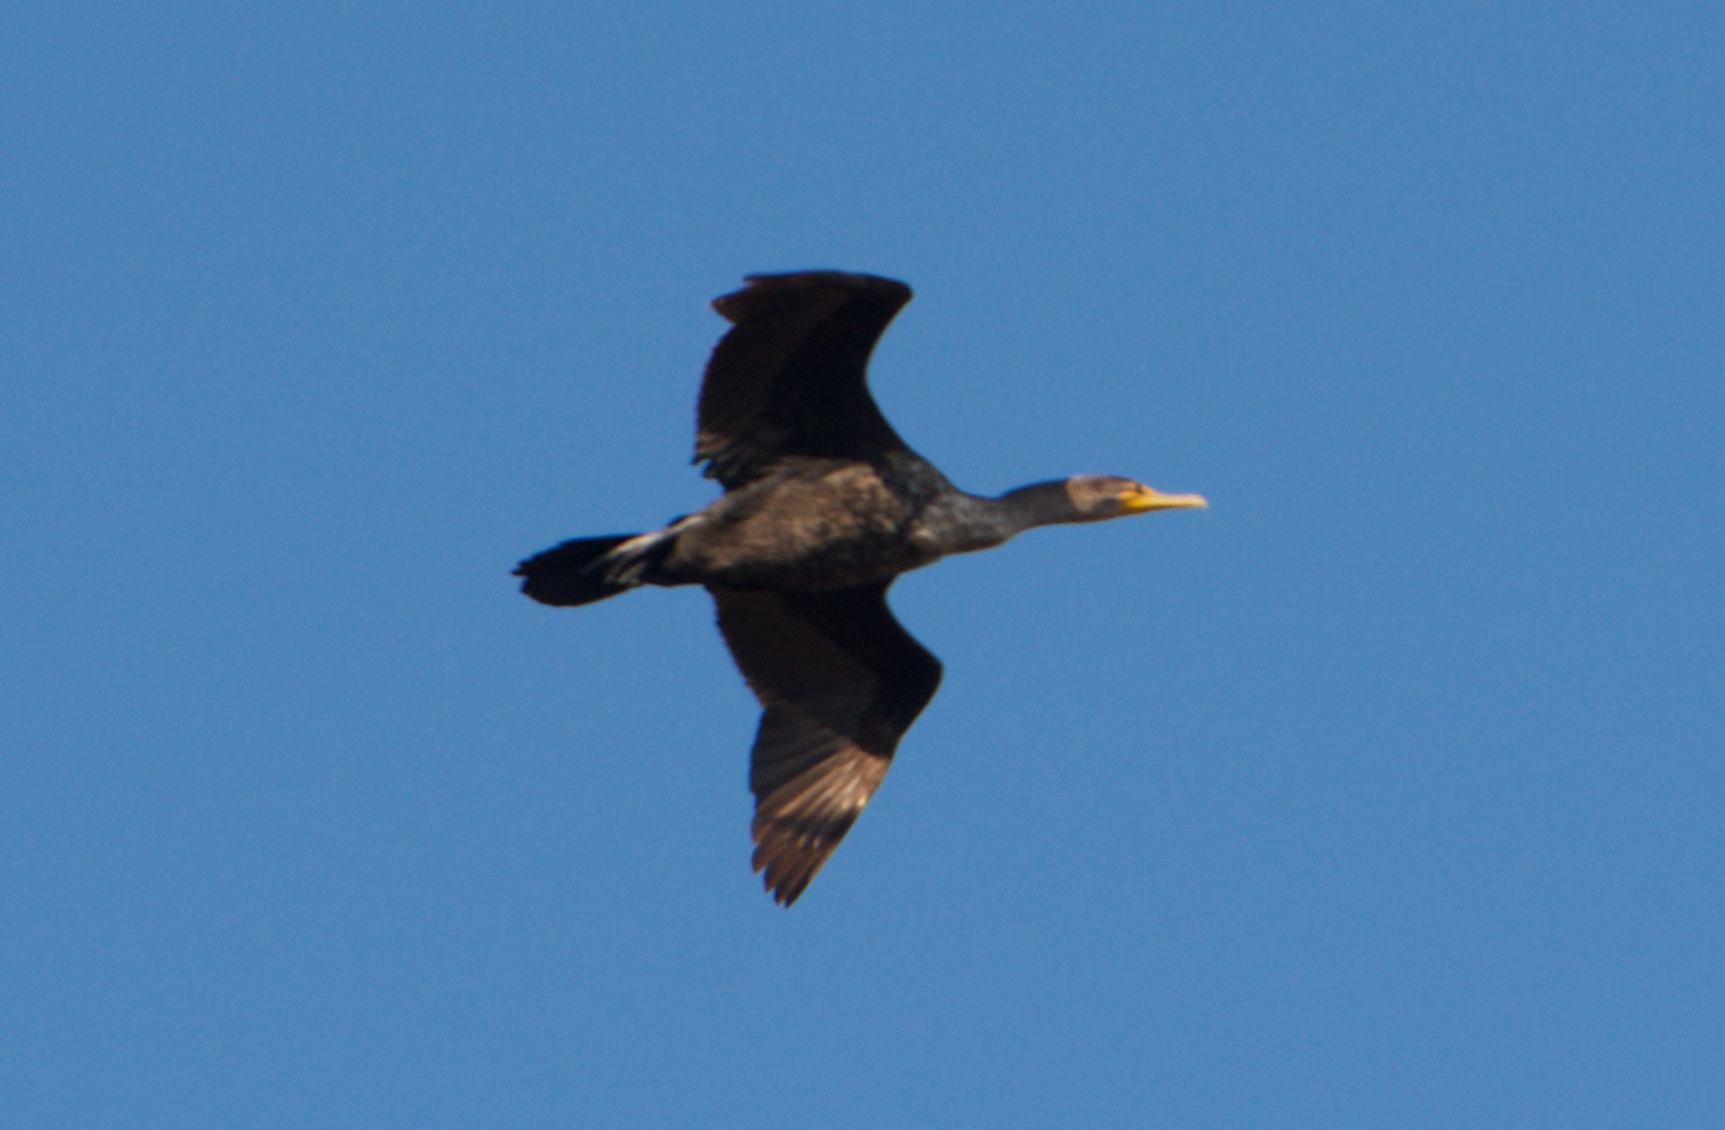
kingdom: Animalia
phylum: Chordata
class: Aves
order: Suliformes
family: Phalacrocoracidae
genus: Phalacrocorax
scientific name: Phalacrocorax auritus
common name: Double-crested cormorant
